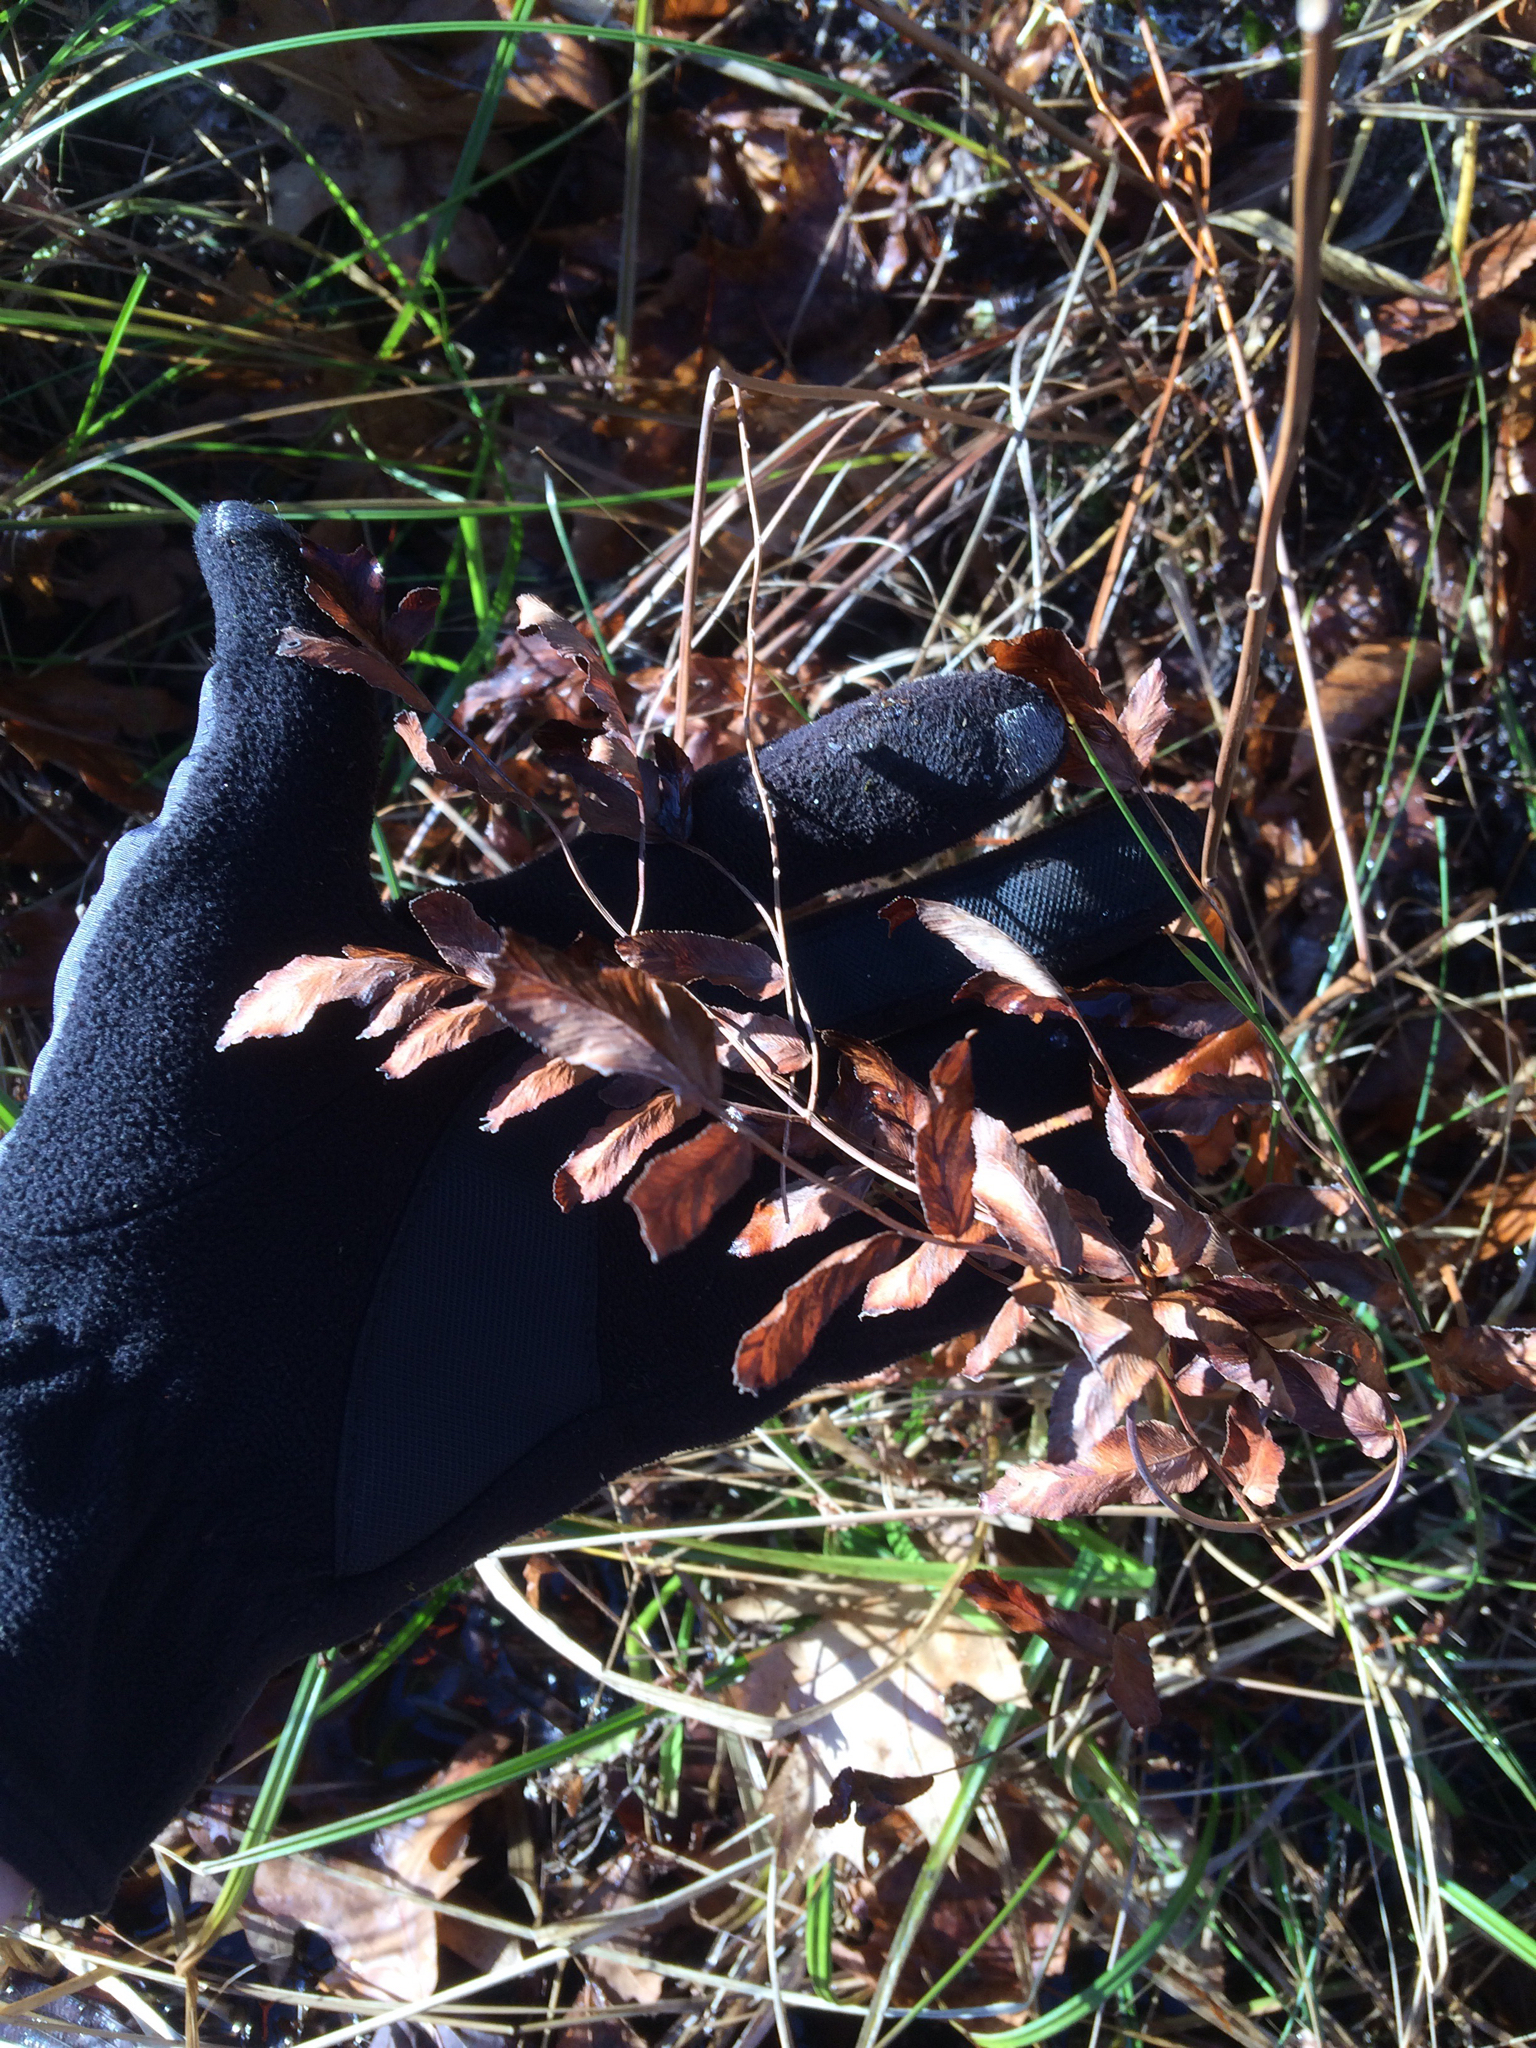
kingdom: Plantae
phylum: Tracheophyta
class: Polypodiopsida
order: Osmundales
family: Osmundaceae
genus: Osmunda
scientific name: Osmunda spectabilis
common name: American royal fern
